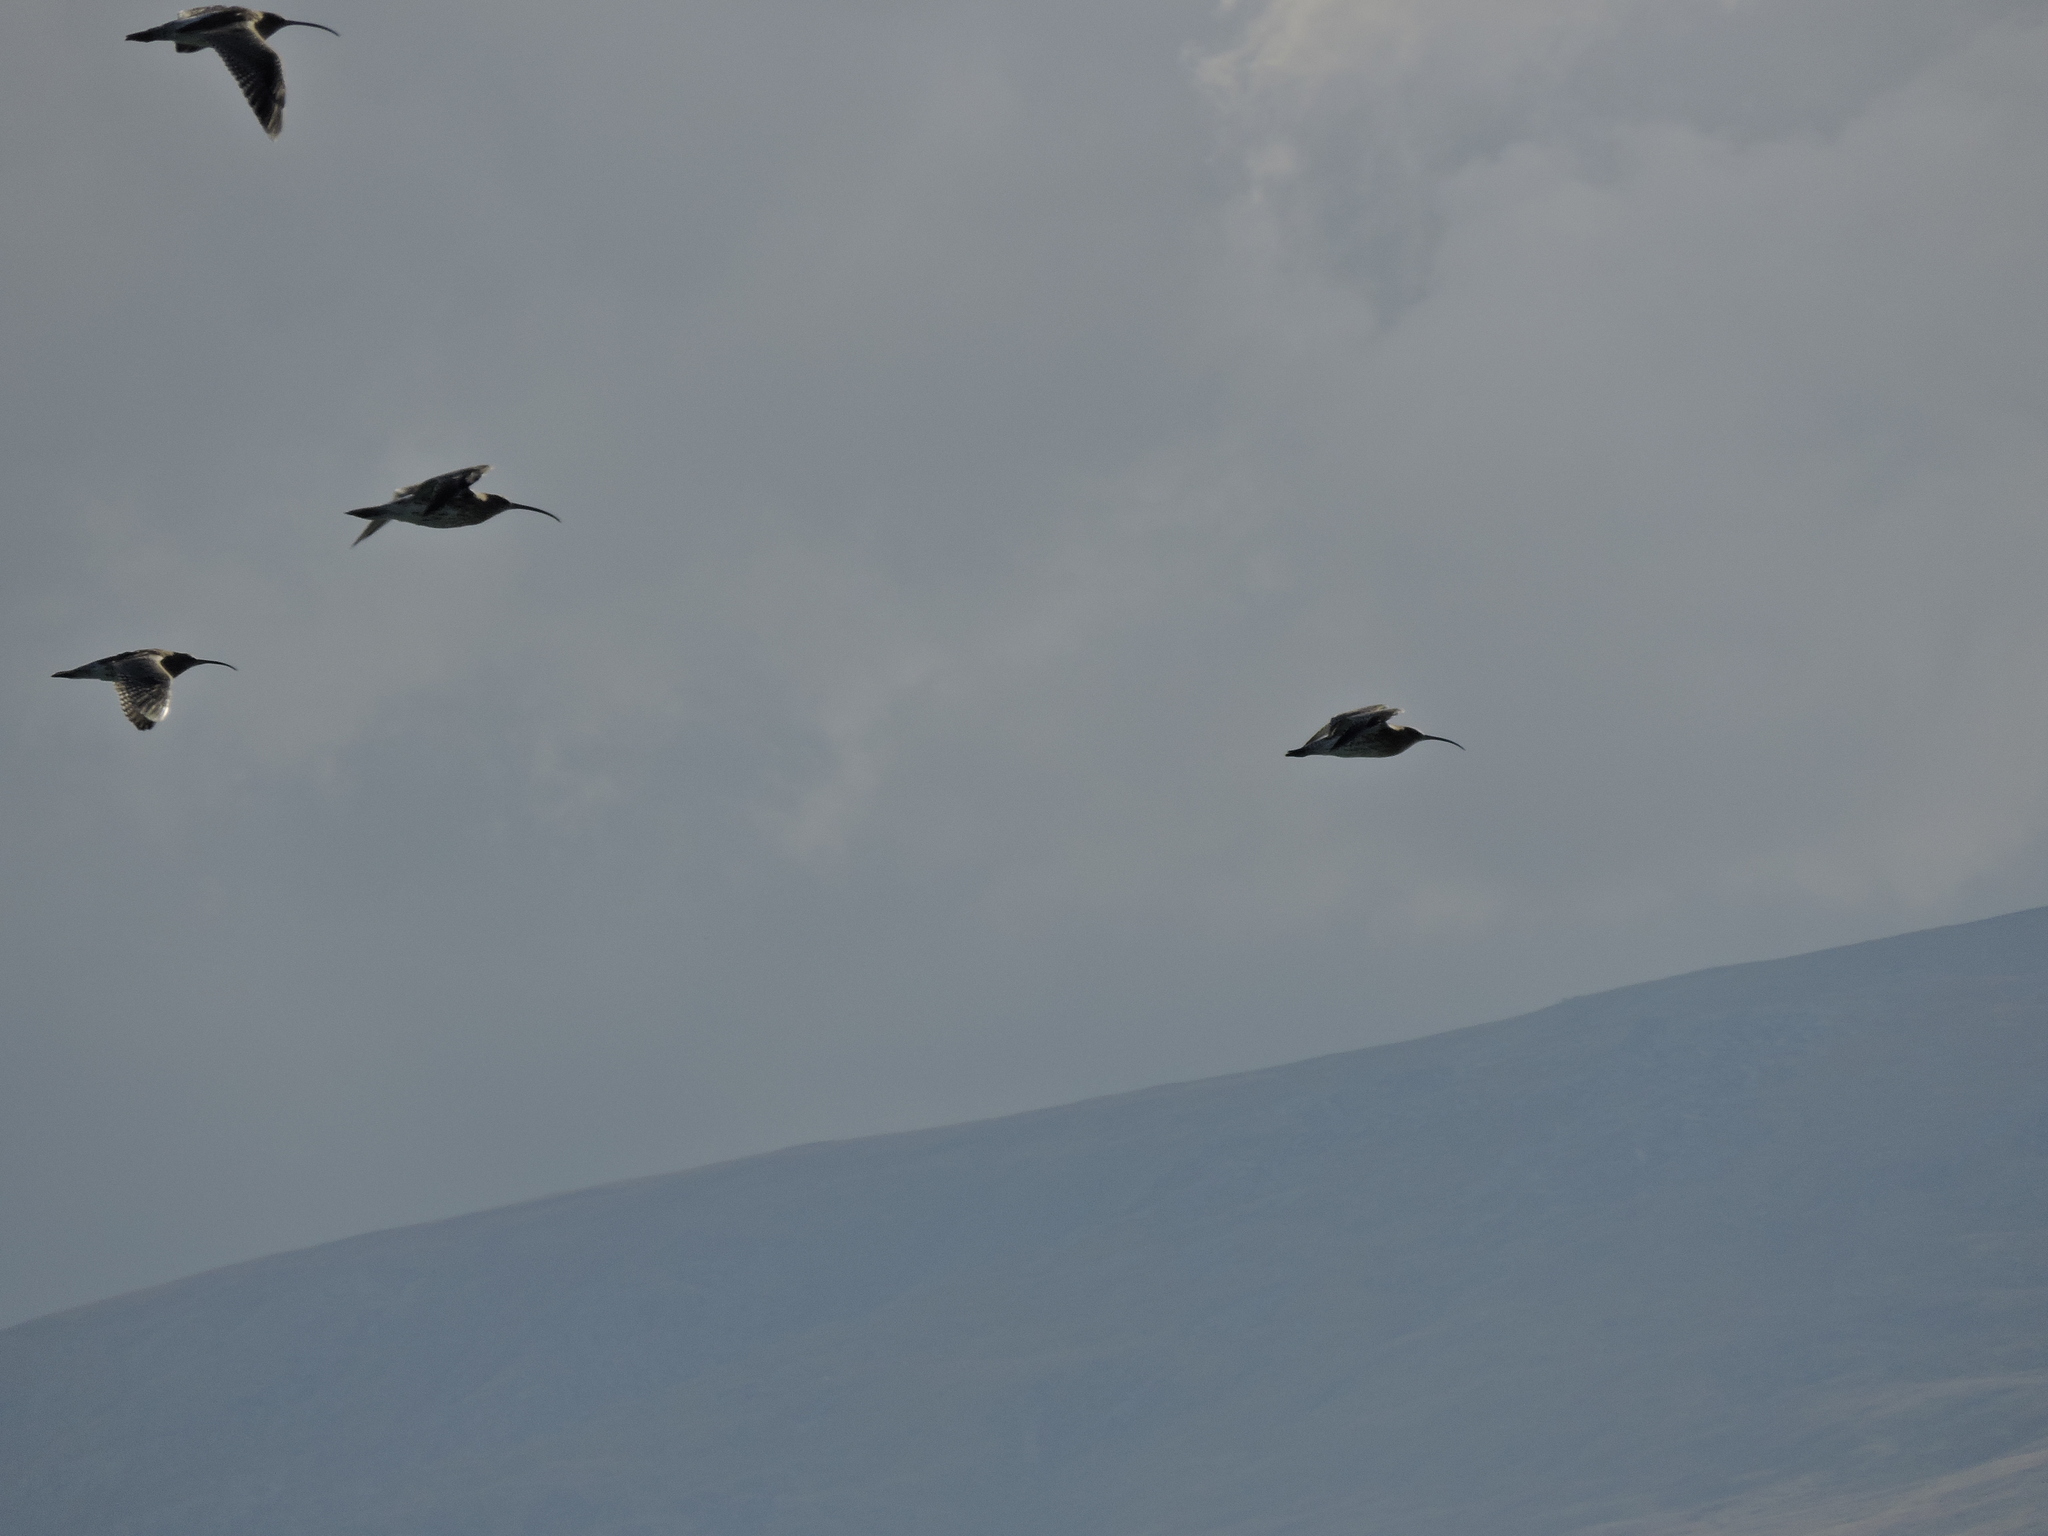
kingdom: Animalia
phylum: Chordata
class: Aves
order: Charadriiformes
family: Scolopacidae
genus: Numenius
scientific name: Numenius arquata
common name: Eurasian curlew
